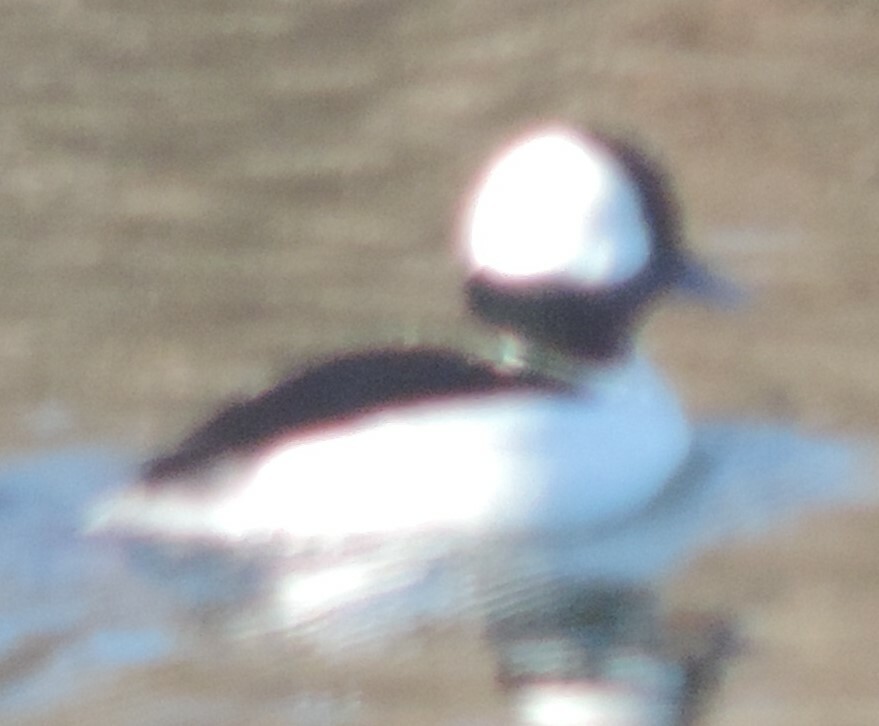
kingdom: Animalia
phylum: Chordata
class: Aves
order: Anseriformes
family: Anatidae
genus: Bucephala
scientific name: Bucephala albeola
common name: Bufflehead
